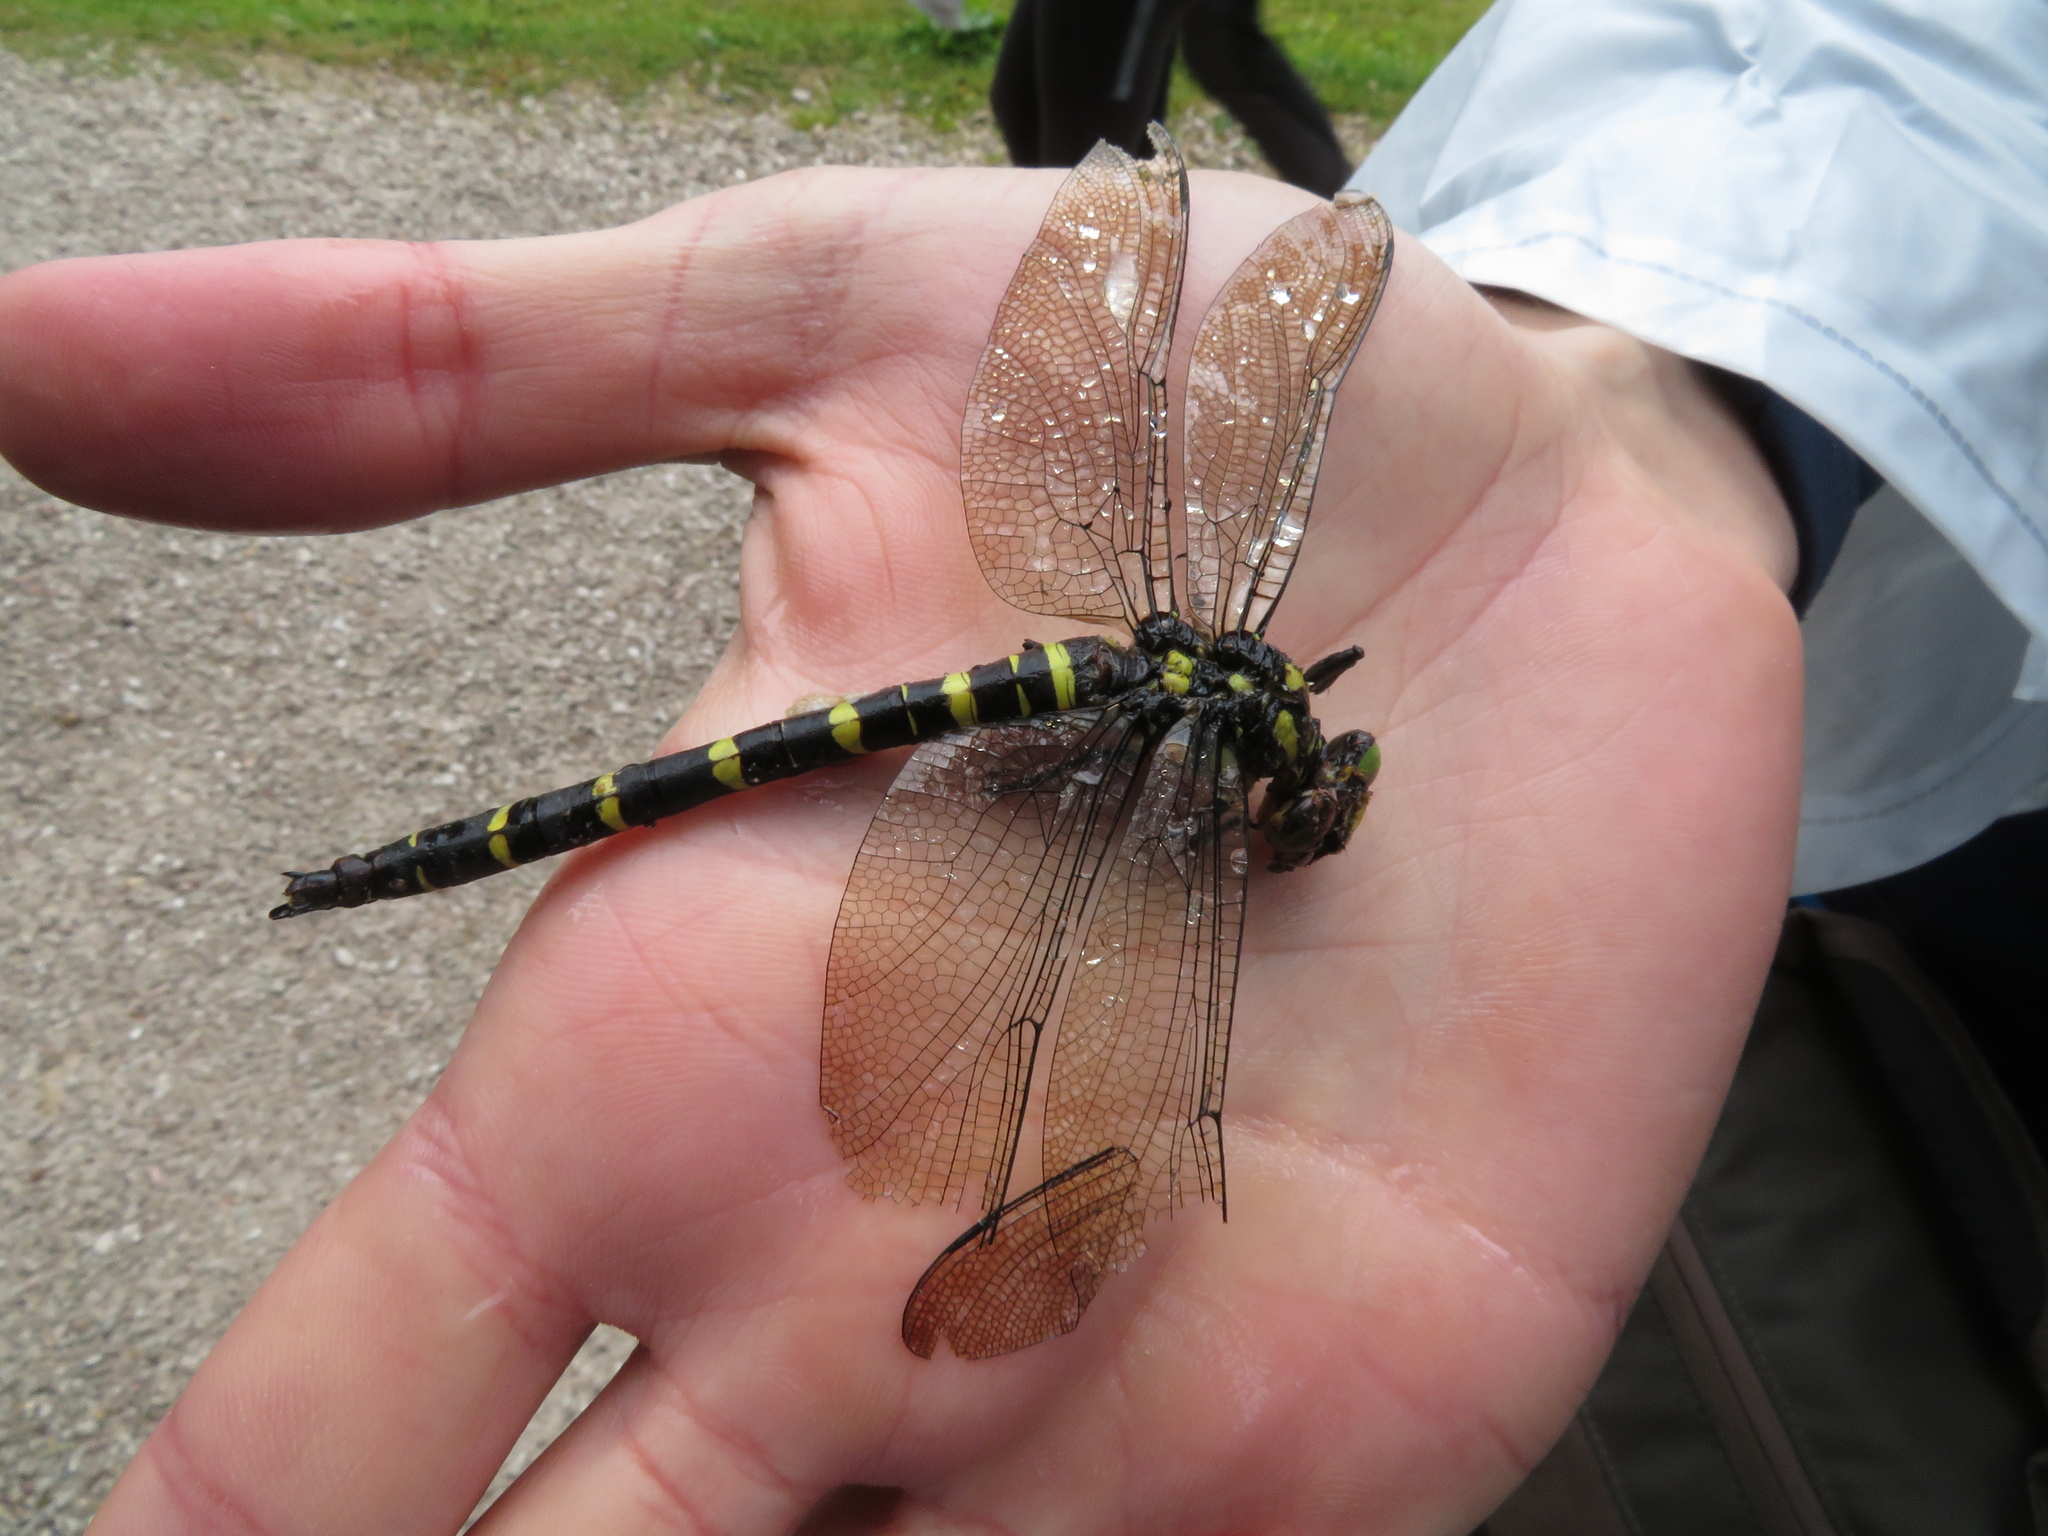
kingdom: Animalia
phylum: Arthropoda
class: Insecta
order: Odonata
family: Cordulegastridae
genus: Cordulegaster
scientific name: Cordulegaster bidentata
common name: Sombre goldenring
